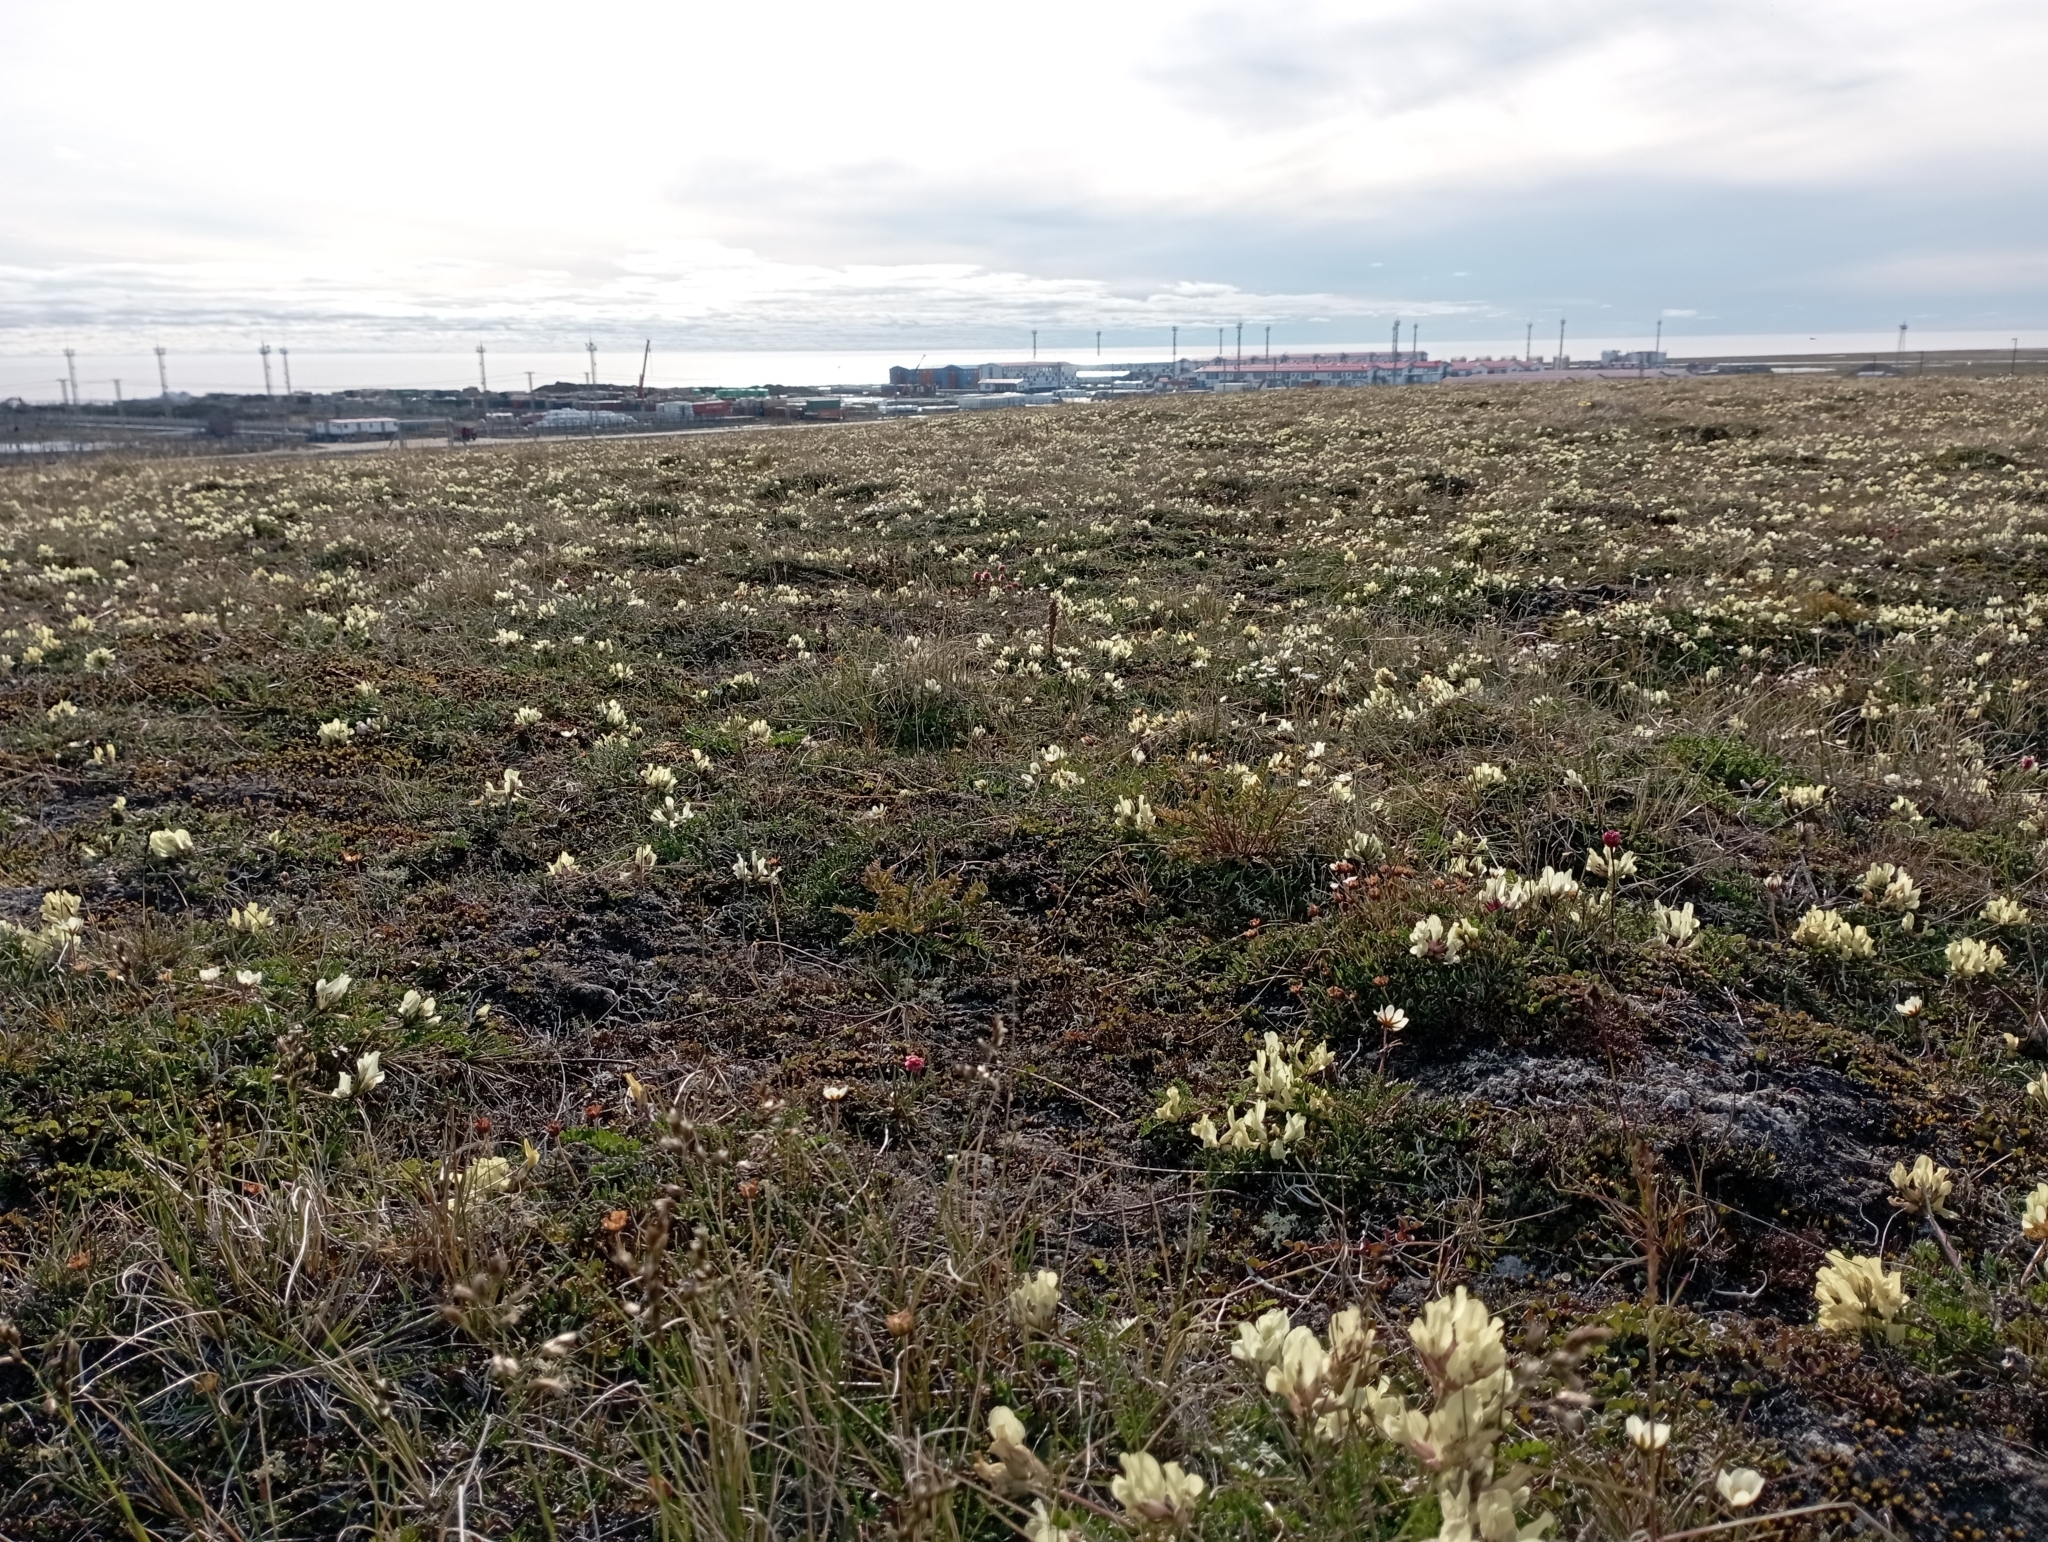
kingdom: Plantae
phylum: Tracheophyta
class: Magnoliopsida
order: Fabales
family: Fabaceae
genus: Oxytropis
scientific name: Oxytropis sordida
